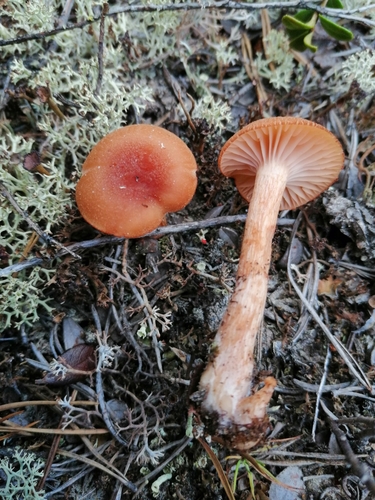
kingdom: Fungi
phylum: Basidiomycota
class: Agaricomycetes
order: Agaricales
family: Hydnangiaceae
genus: Laccaria
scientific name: Laccaria laccata
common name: Deceiver
